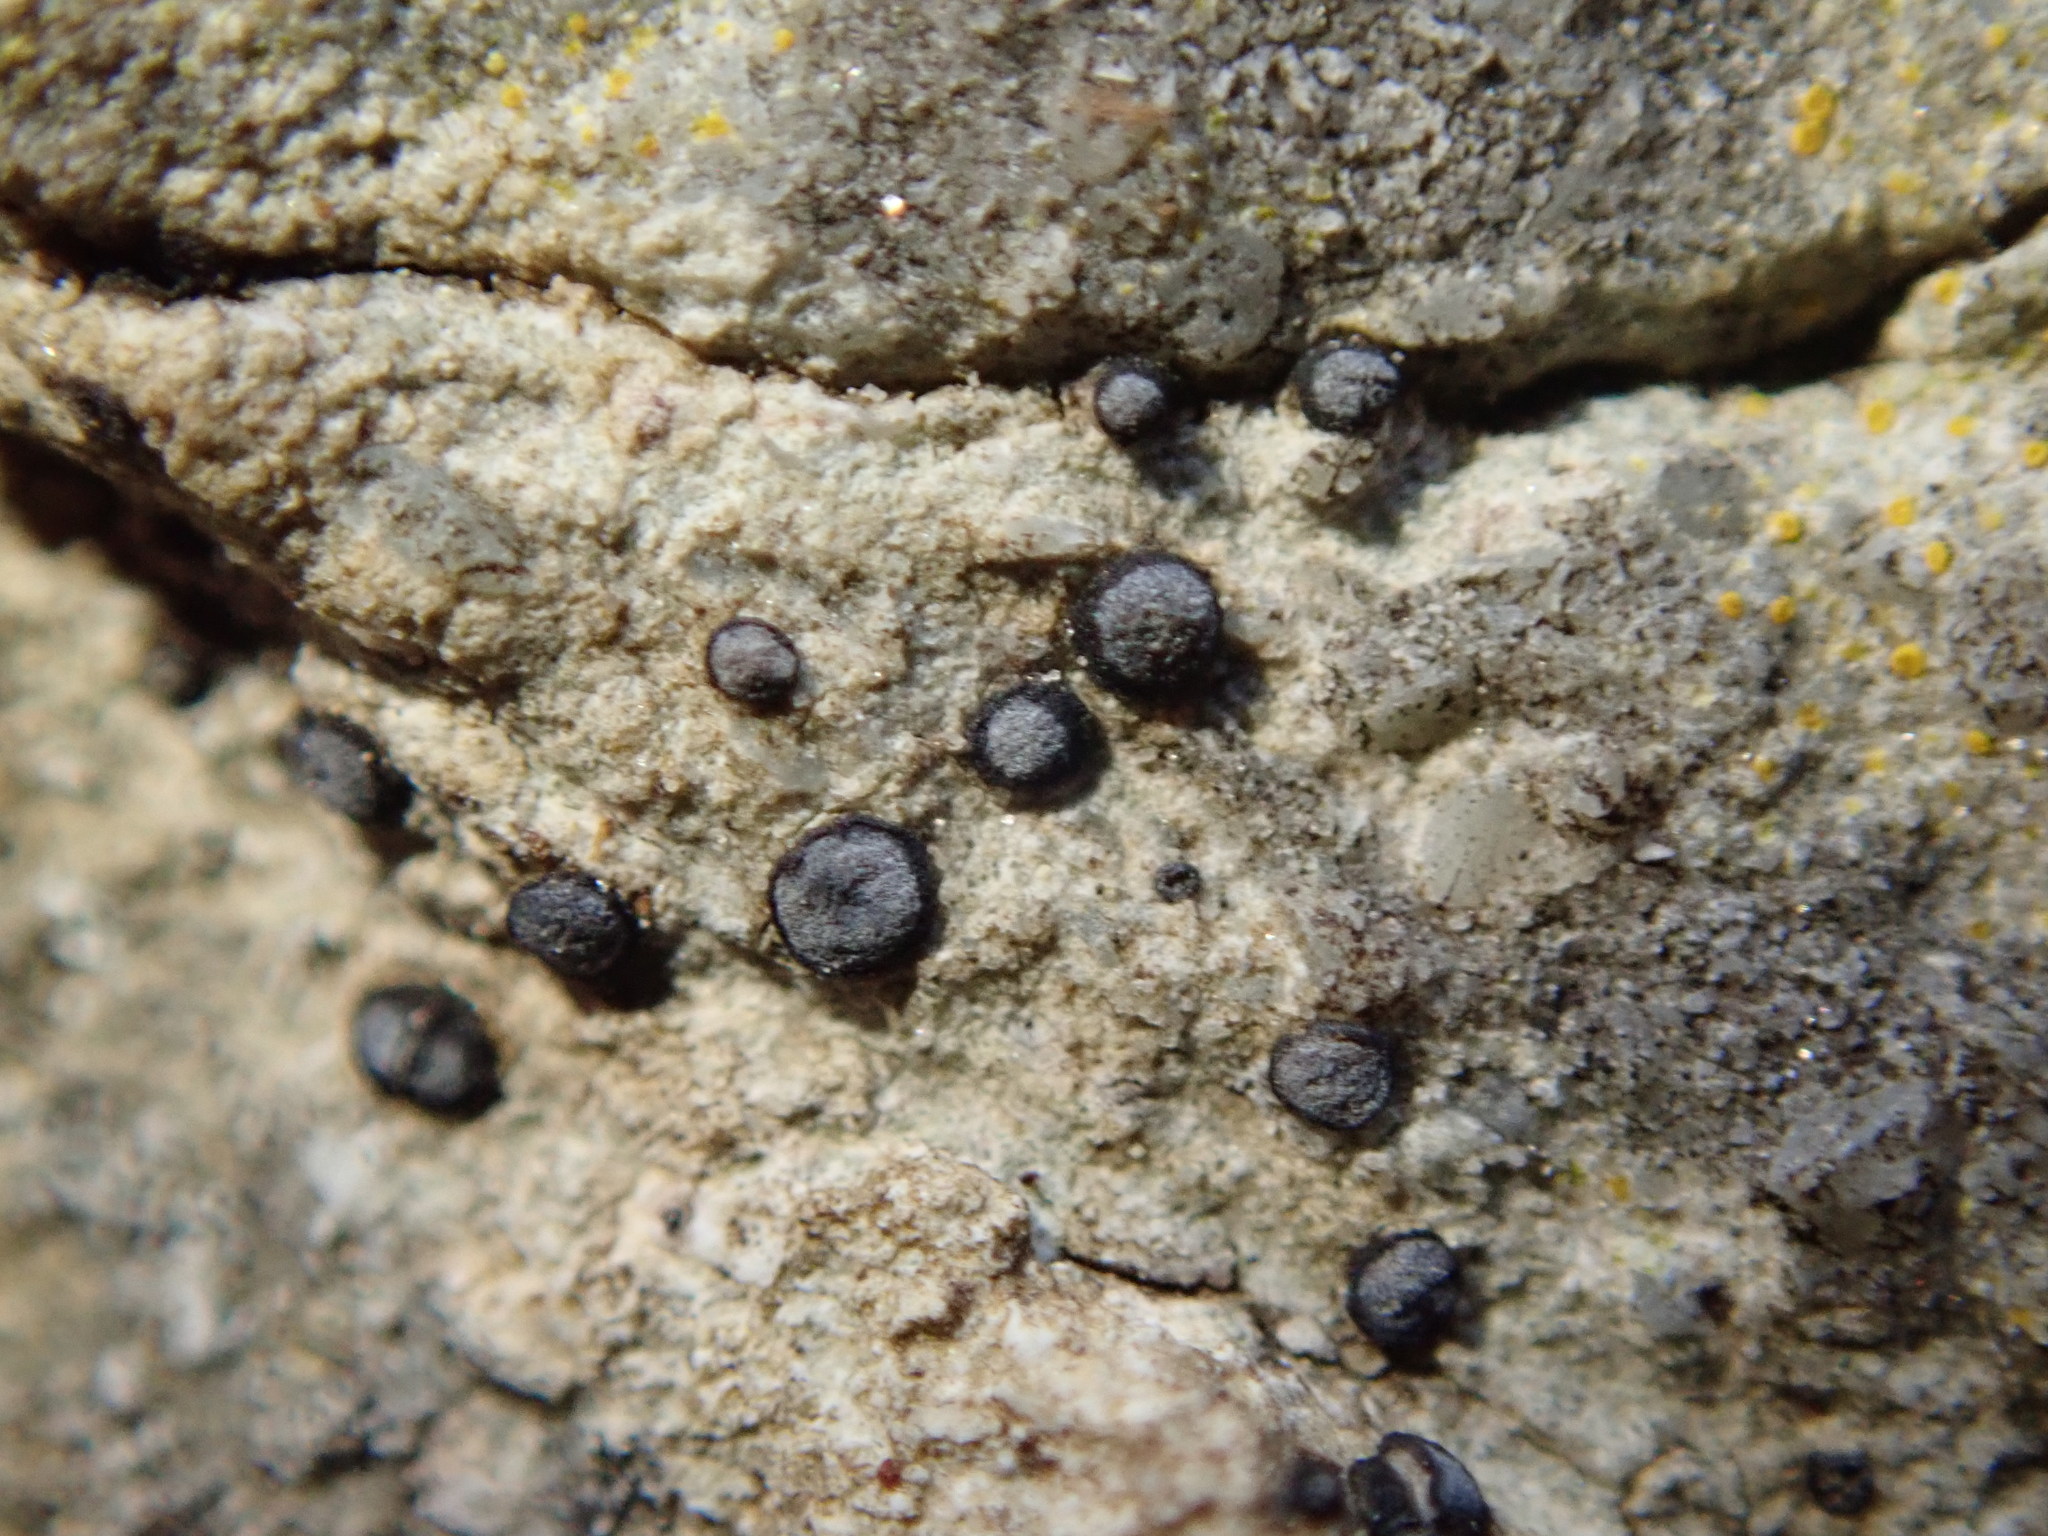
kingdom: Fungi
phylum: Ascomycota
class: Lecanoromycetes
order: Acarosporales
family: Acarosporaceae
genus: Sarcogyne
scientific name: Sarcogyne regularis
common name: Frosted grain-spored lichen
